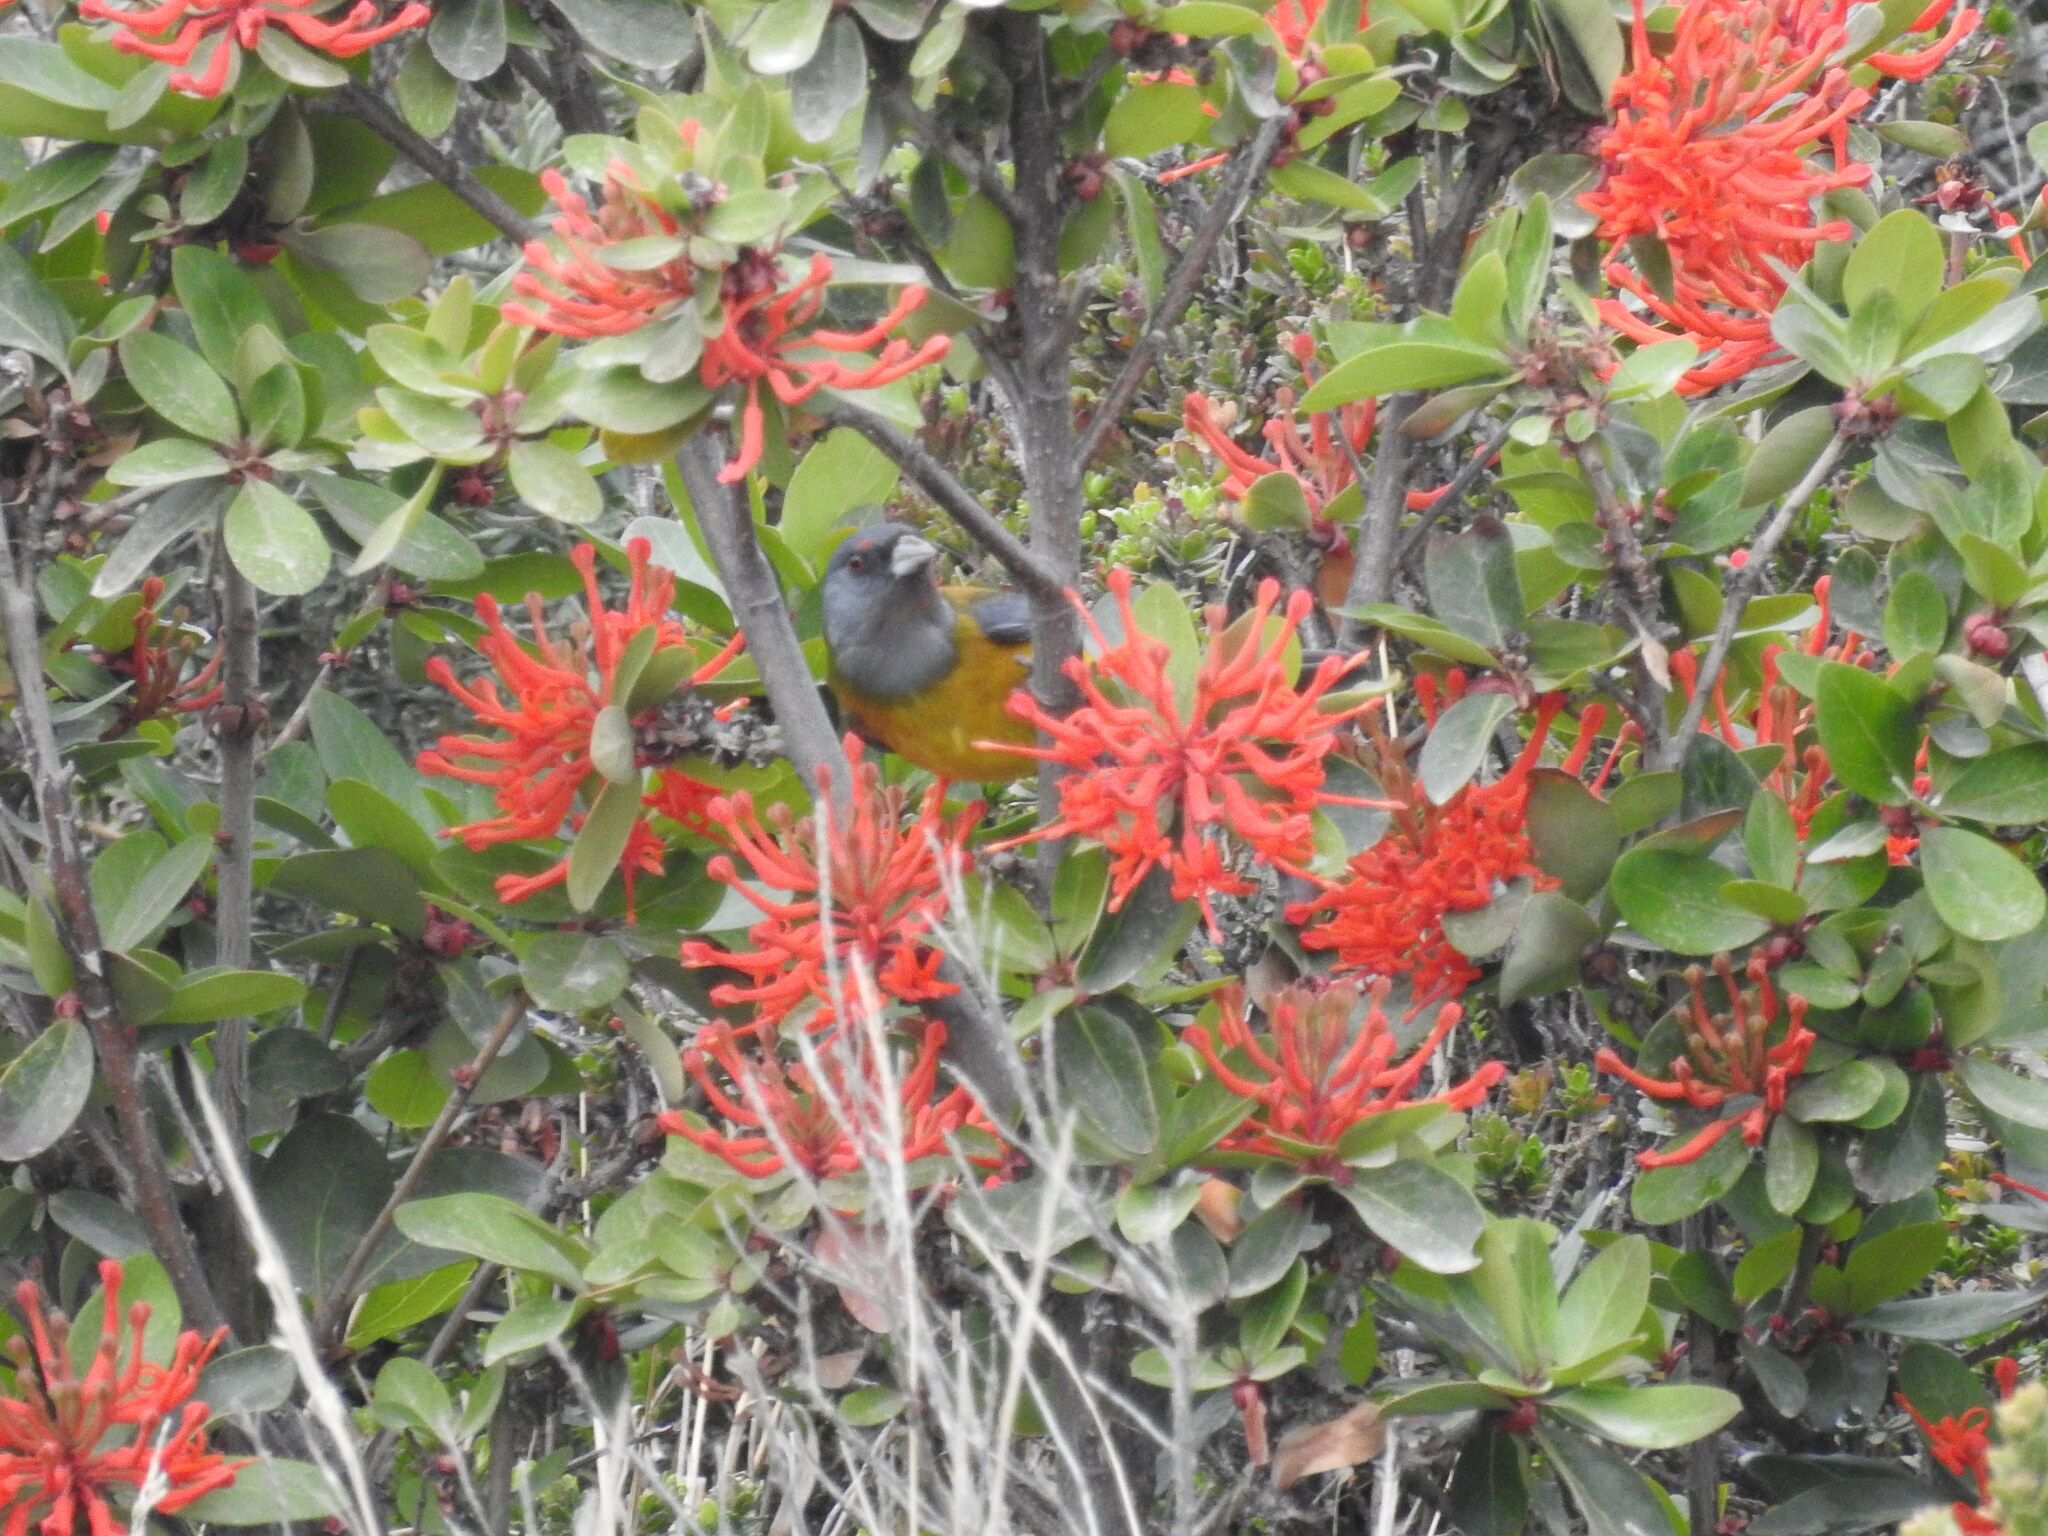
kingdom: Animalia
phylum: Chordata
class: Aves
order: Passeriformes
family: Thraupidae
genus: Phrygilus
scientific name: Phrygilus patagonicus
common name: Patagonian sierra finch
